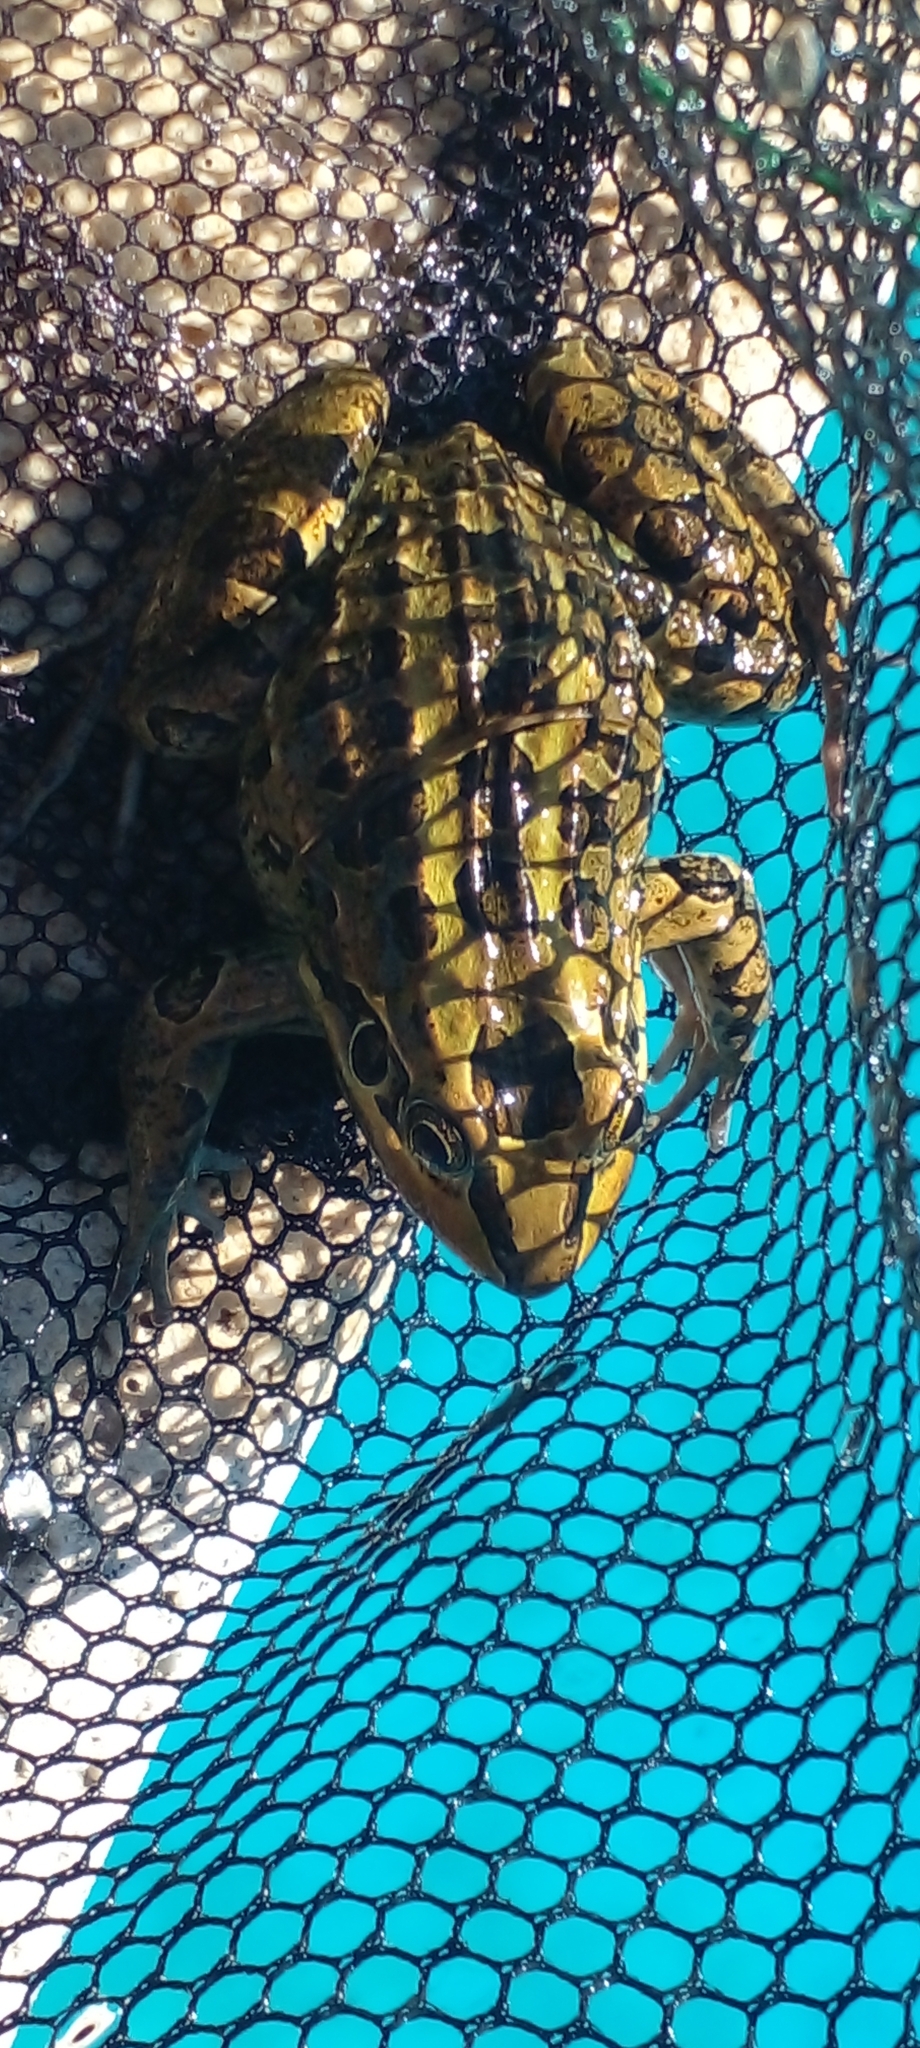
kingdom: Animalia
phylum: Chordata
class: Amphibia
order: Anura
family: Leptodactylidae
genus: Leptodactylus
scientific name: Leptodactylus luctator
